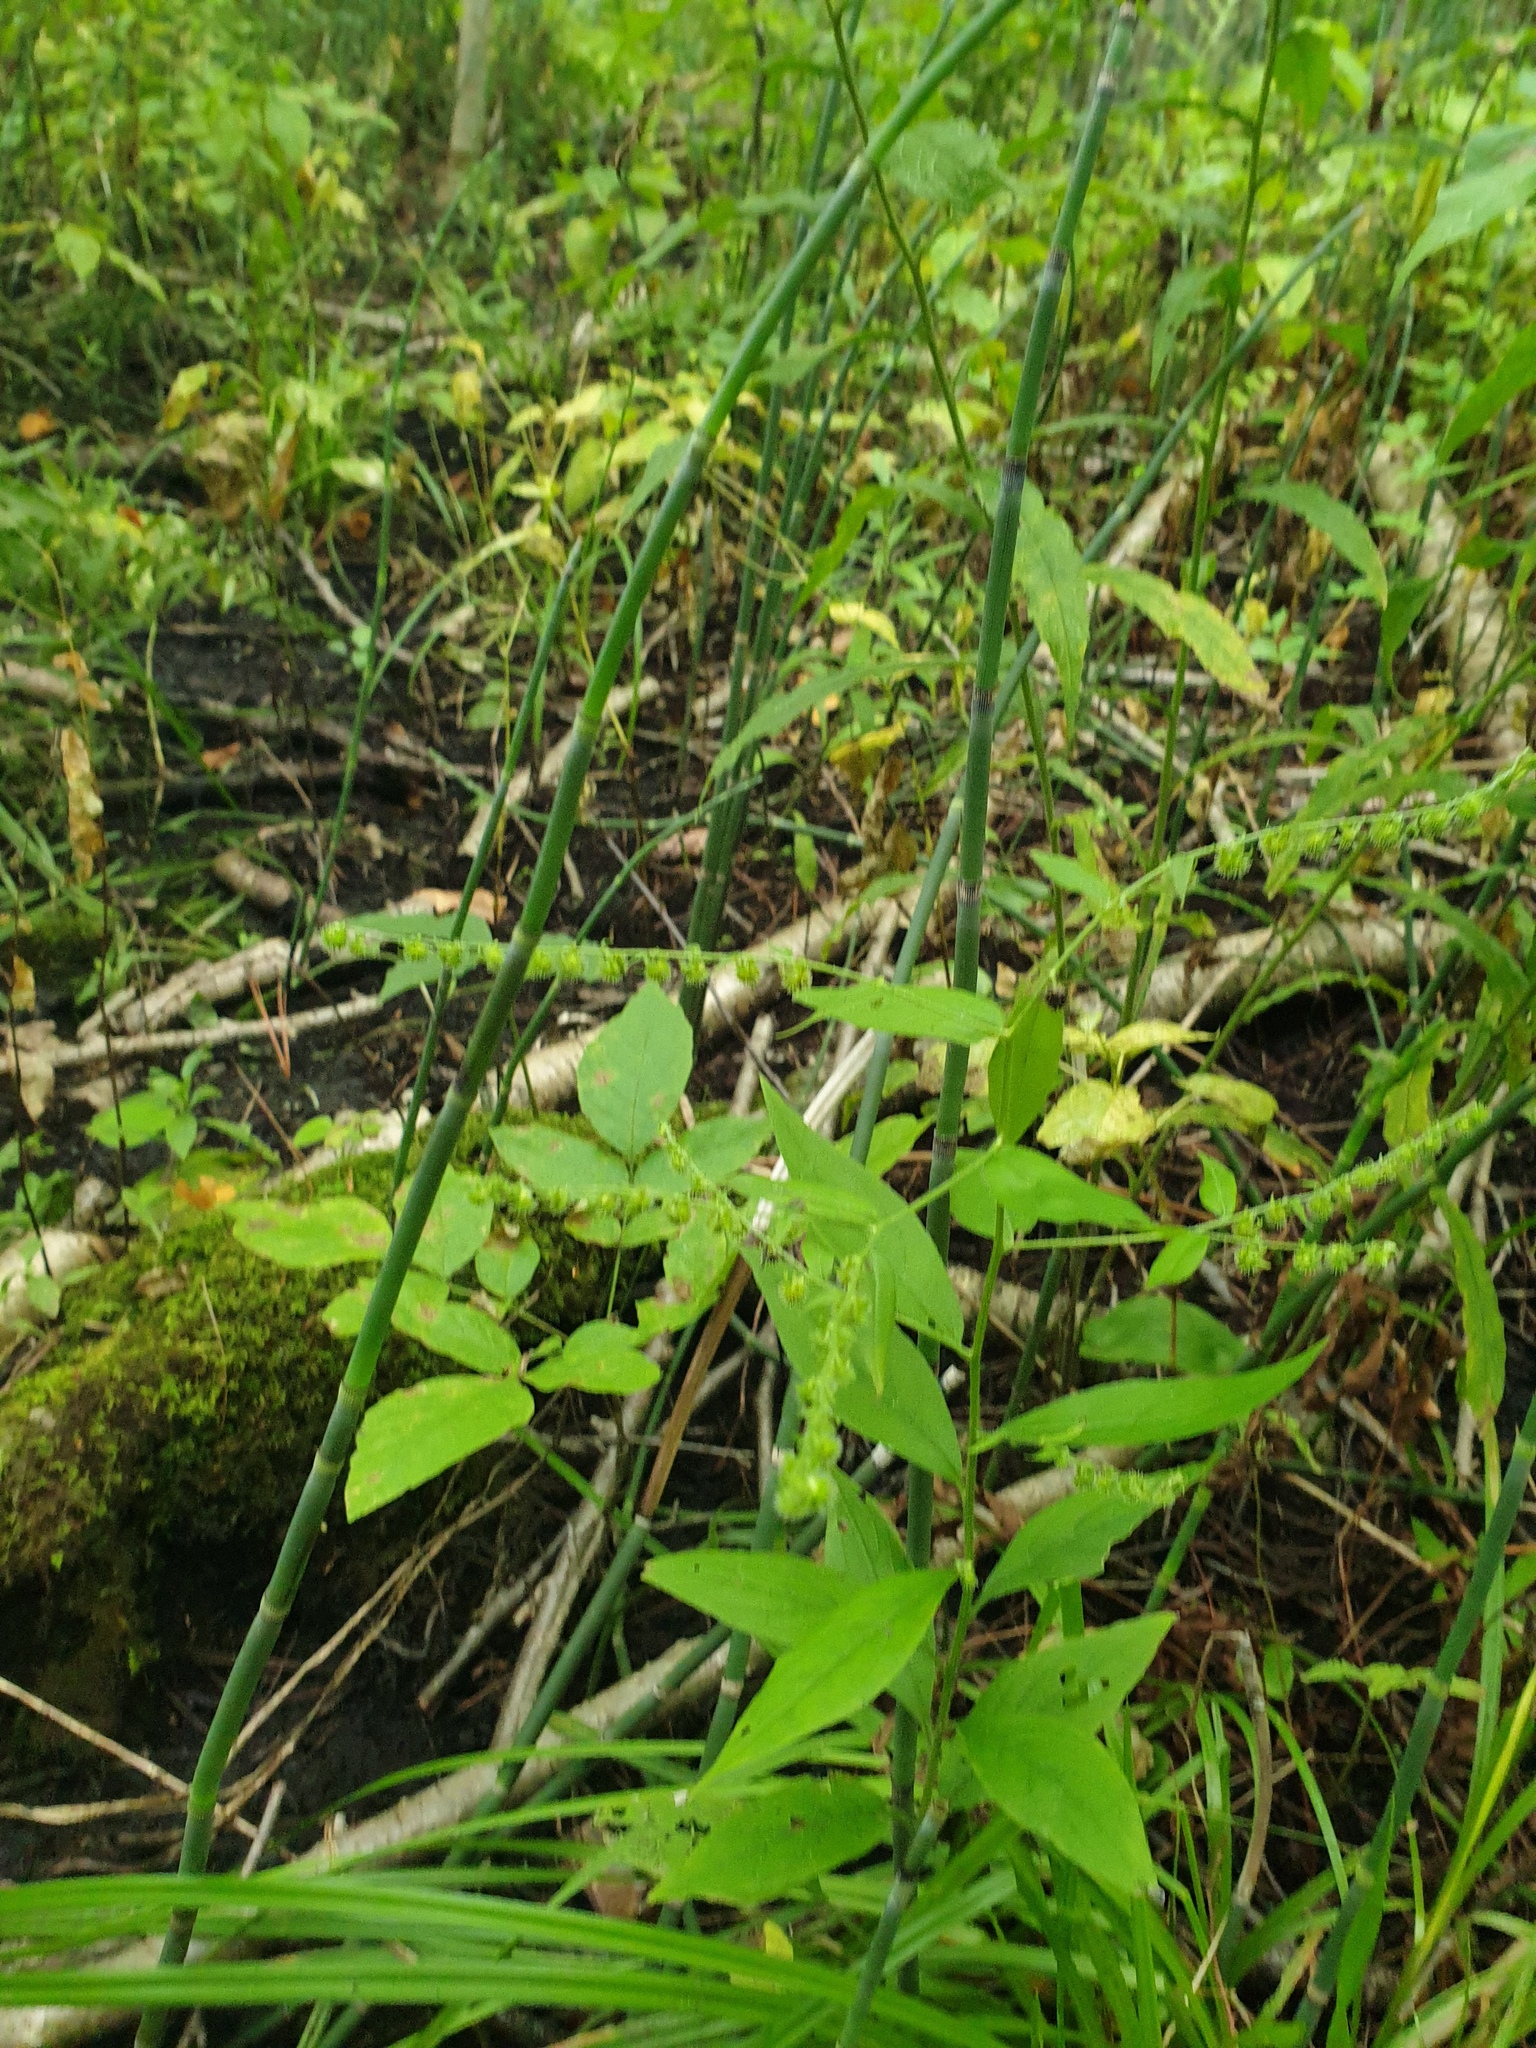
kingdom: Plantae
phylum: Tracheophyta
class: Magnoliopsida
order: Boraginales
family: Boraginaceae
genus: Hackelia
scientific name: Hackelia virginiana
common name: Beggar's-lice
